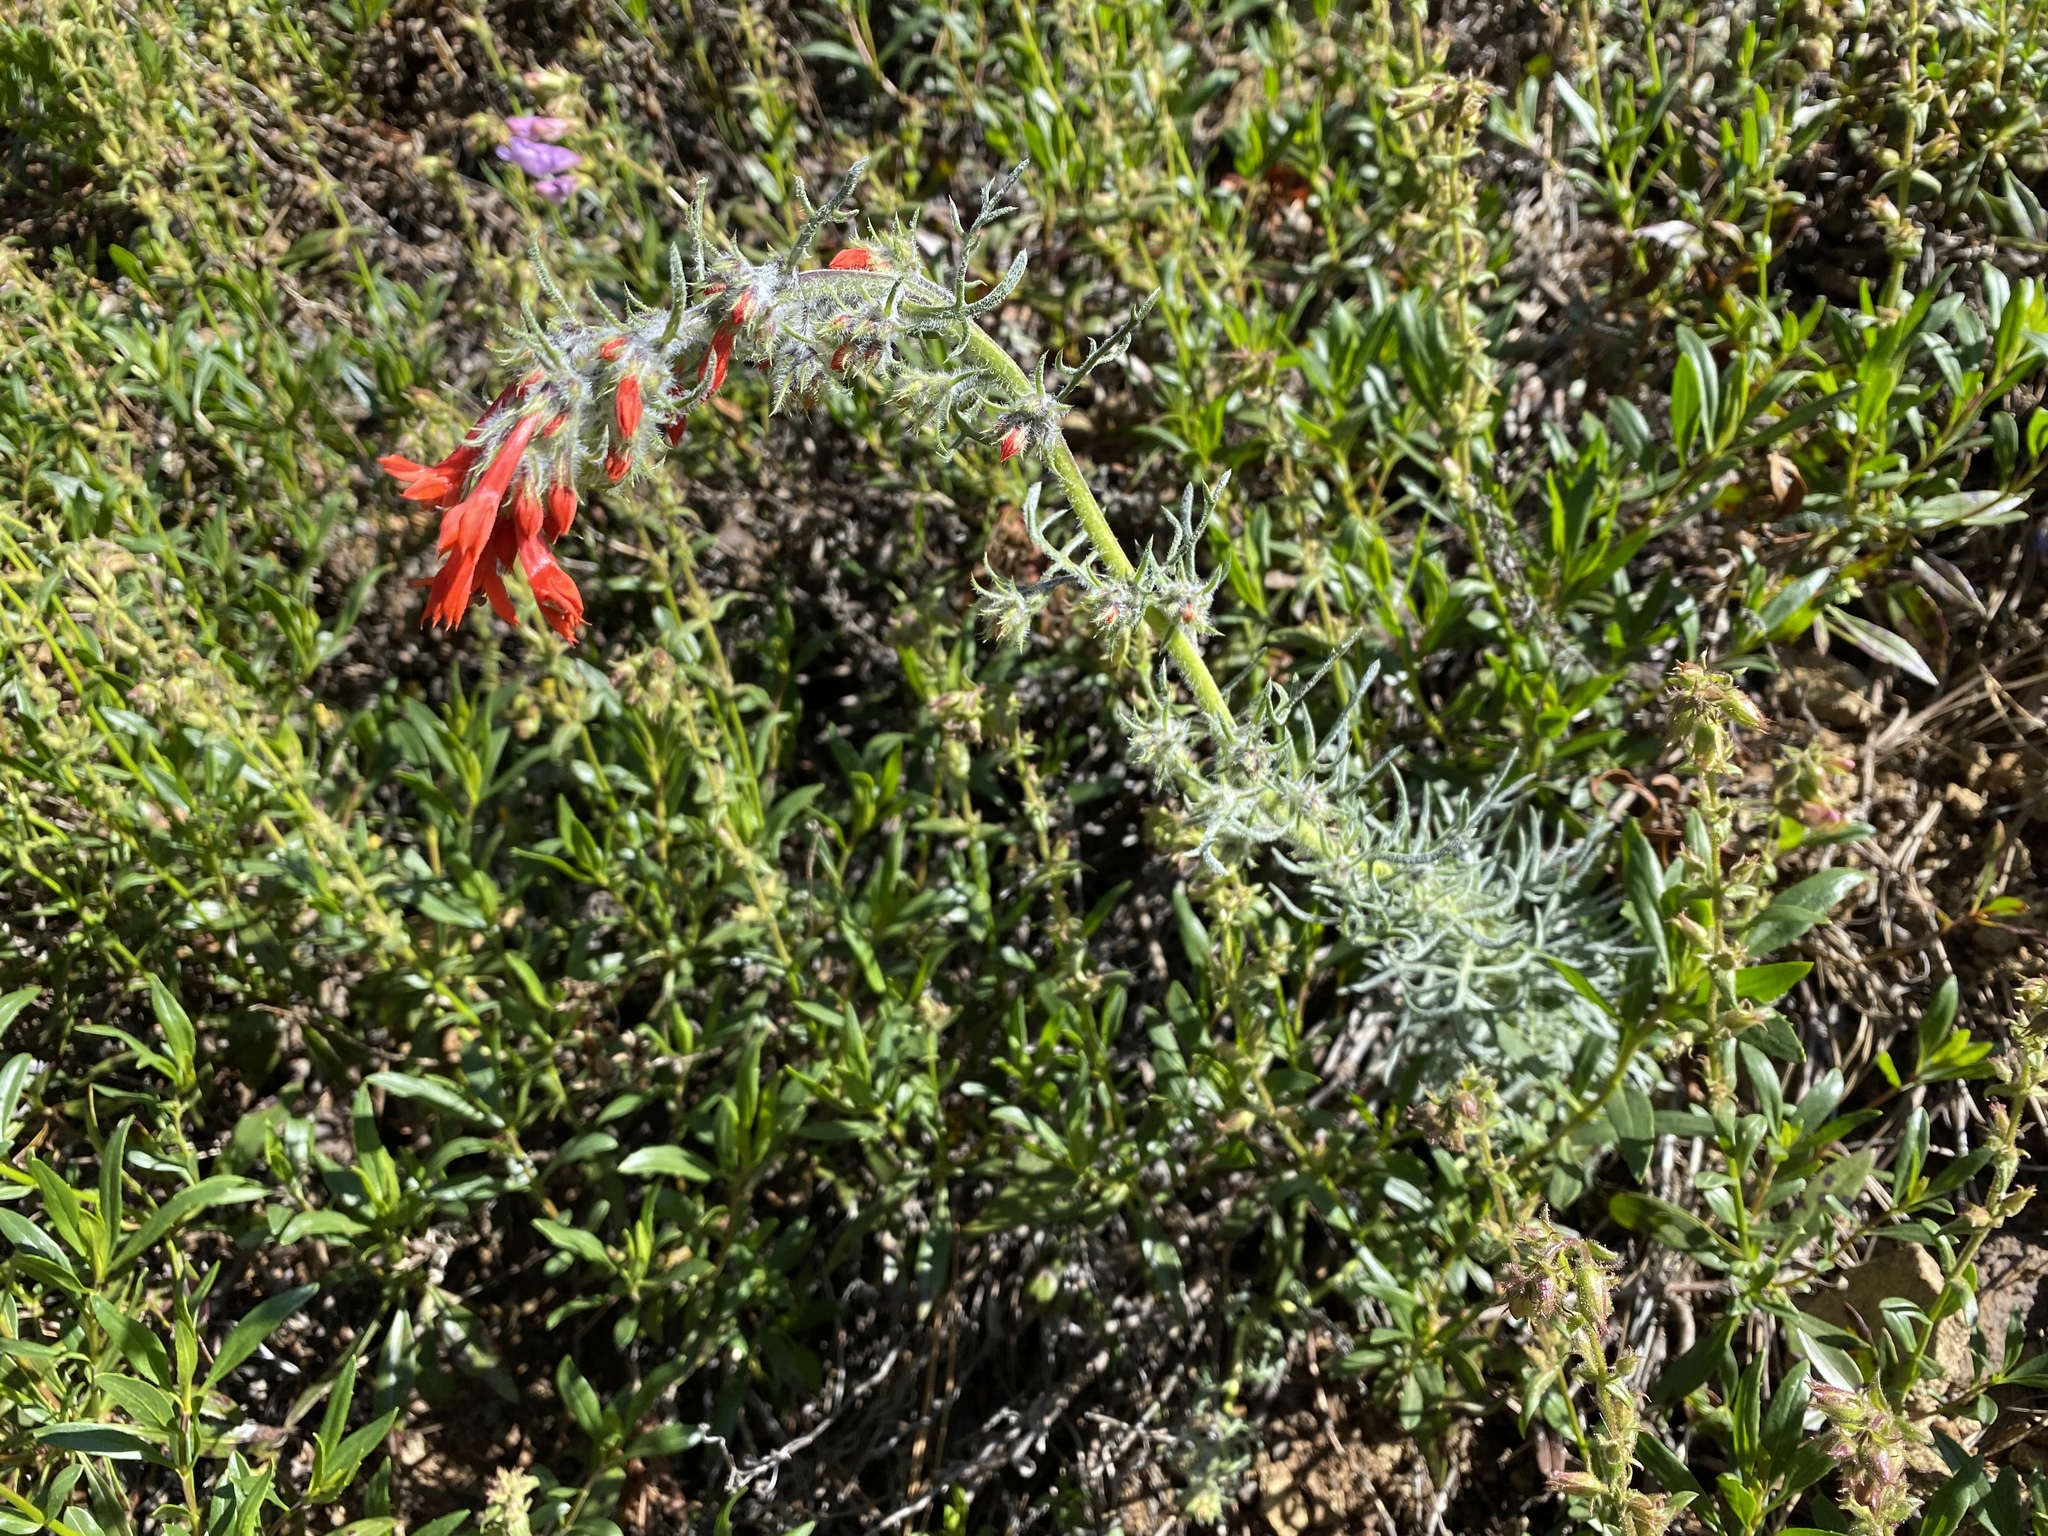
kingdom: Plantae
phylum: Tracheophyta
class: Magnoliopsida
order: Ericales
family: Polemoniaceae
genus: Ipomopsis
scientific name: Ipomopsis aggregata
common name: Scarlet gilia
